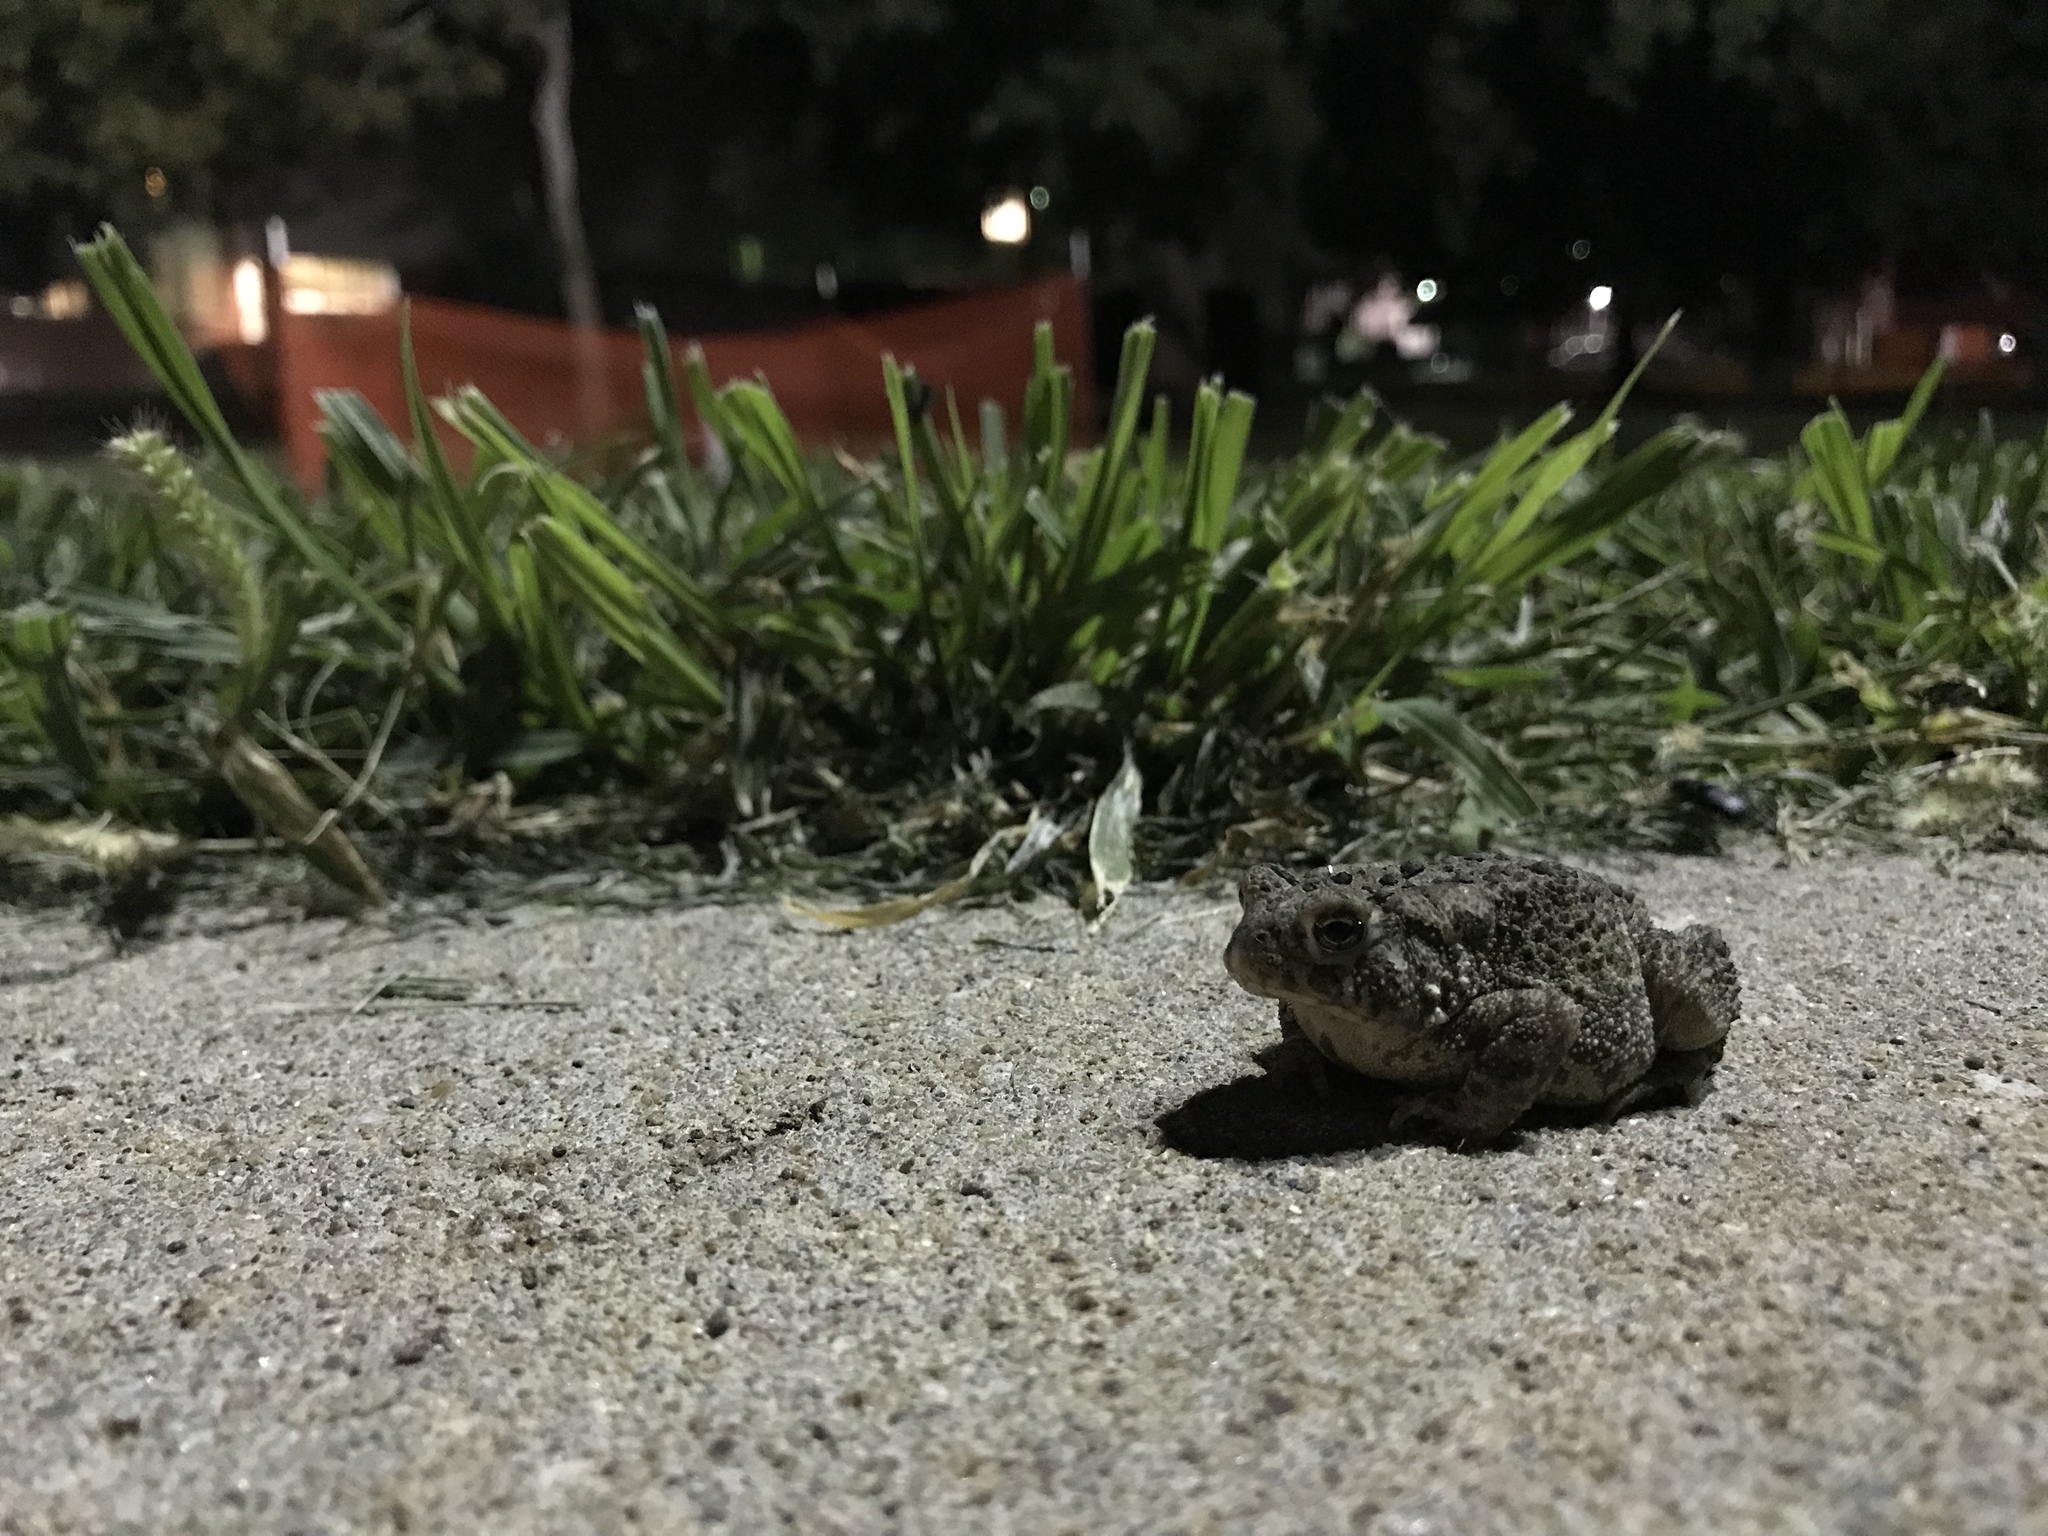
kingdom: Animalia
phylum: Chordata
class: Amphibia
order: Anura
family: Bufonidae
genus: Anaxyrus
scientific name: Anaxyrus americanus
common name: American toad
